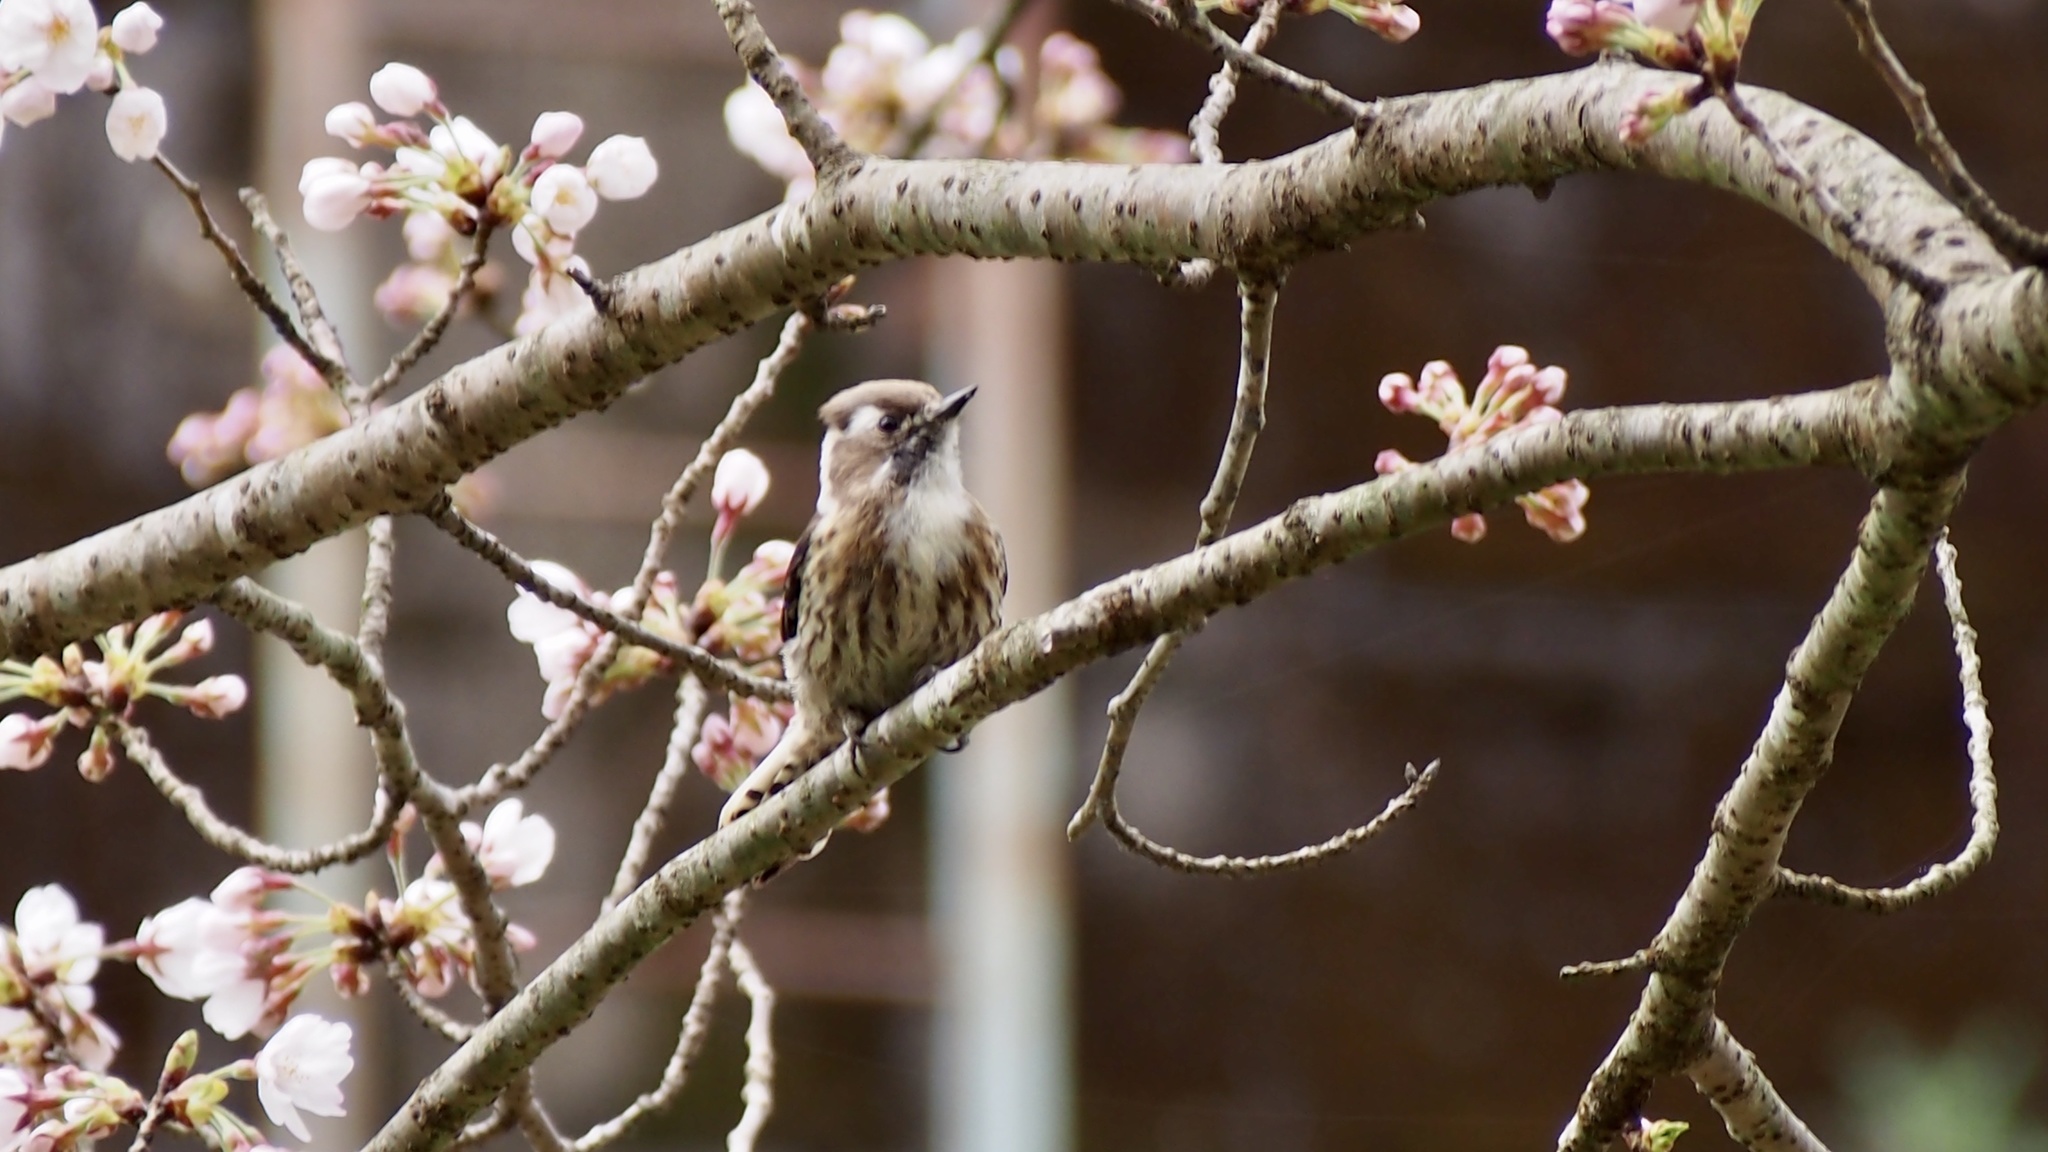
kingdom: Animalia
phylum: Chordata
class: Aves
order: Piciformes
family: Picidae
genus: Yungipicus
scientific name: Yungipicus kizuki
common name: Japanese pygmy woodpecker
